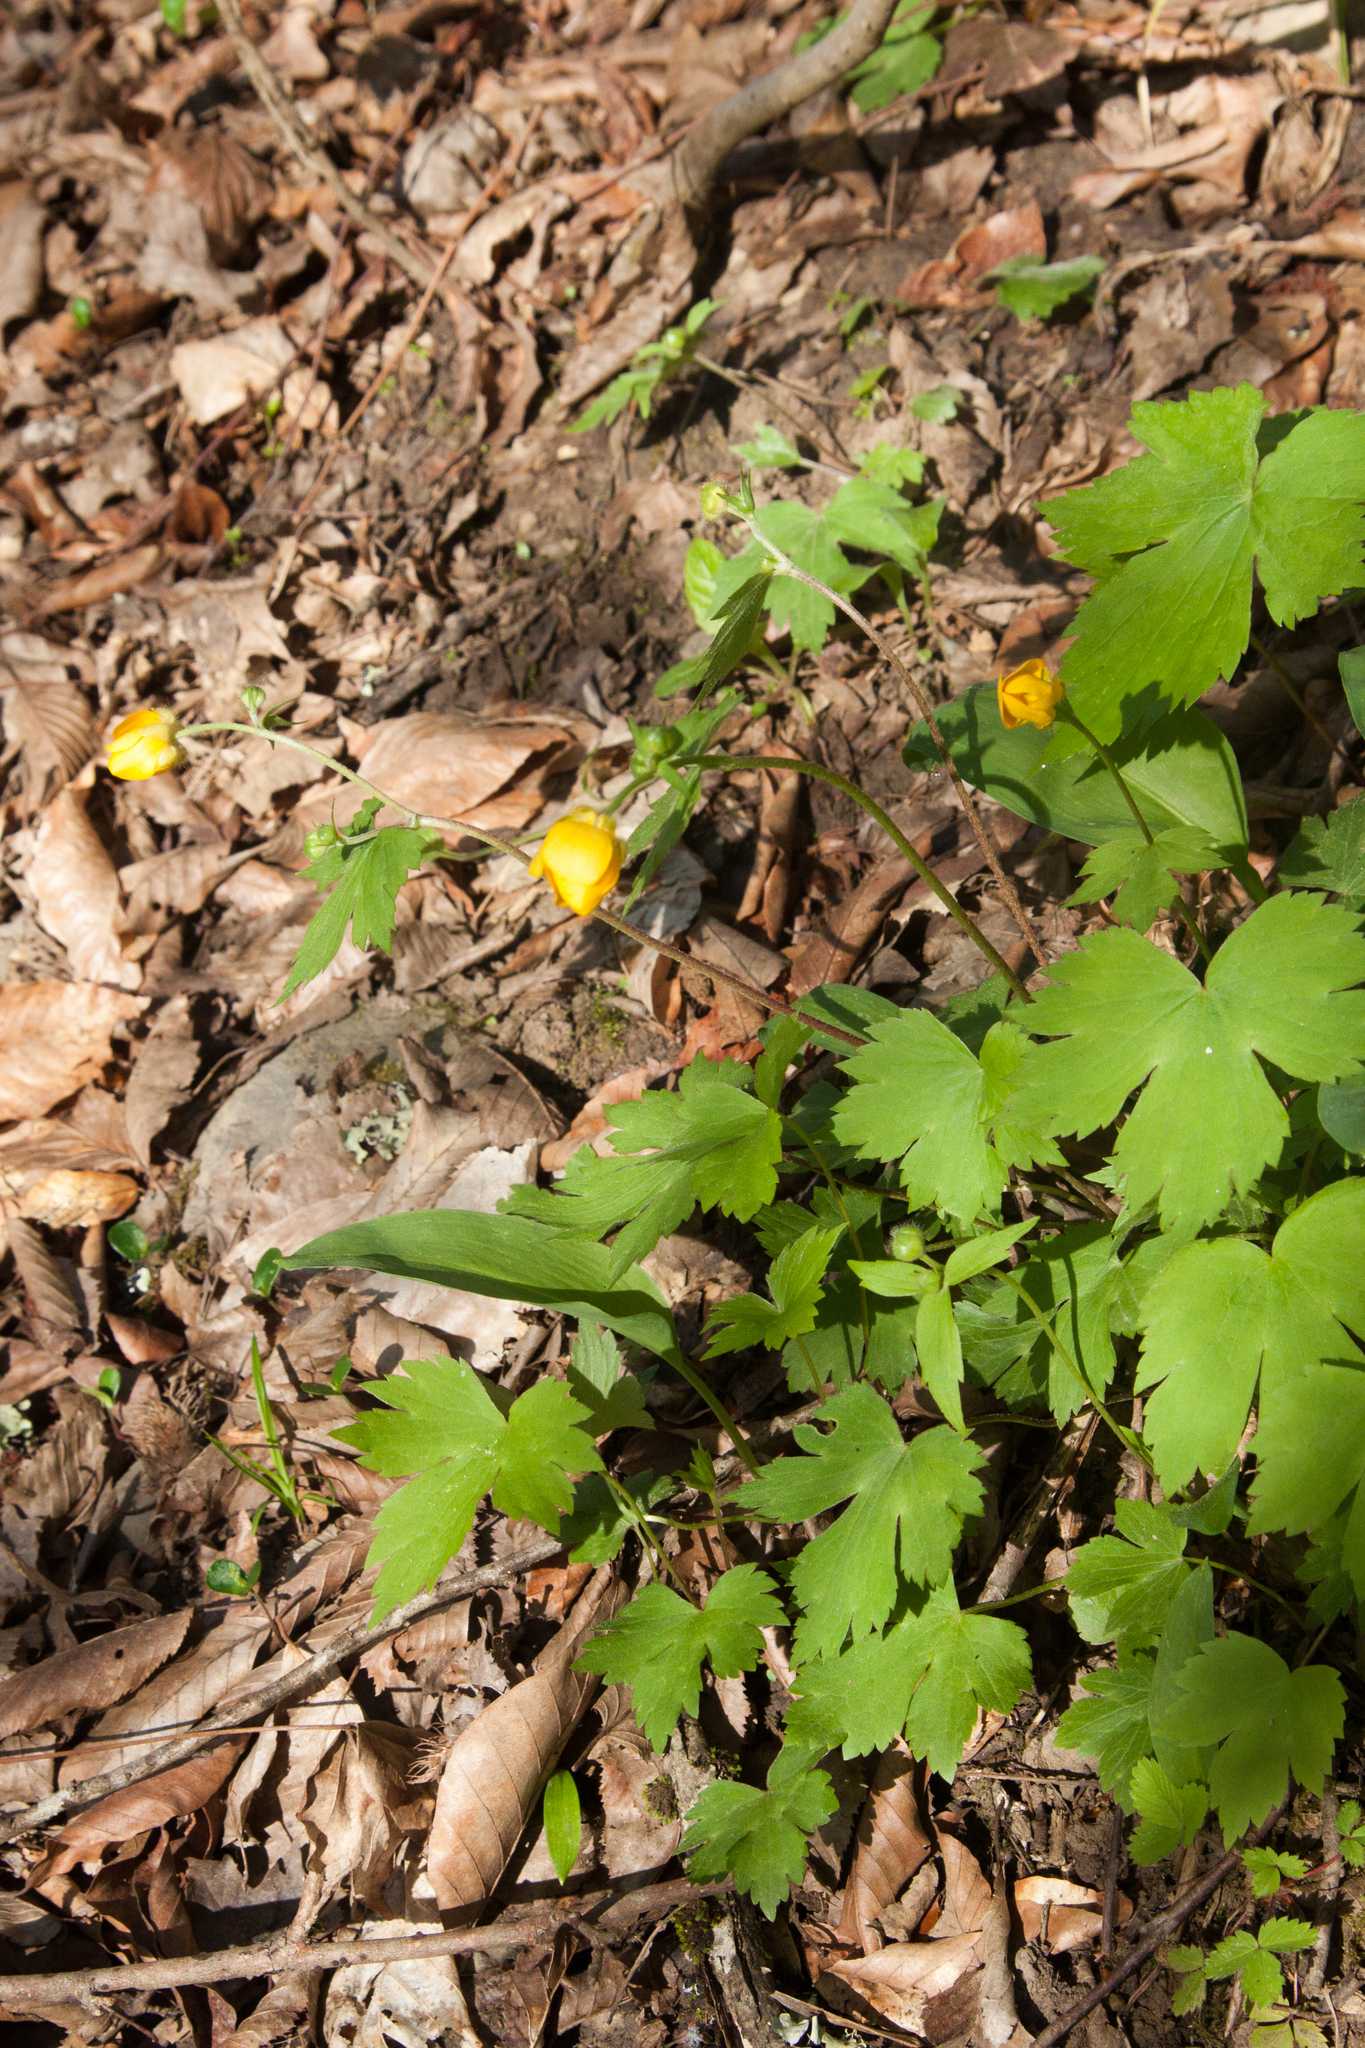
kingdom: Plantae
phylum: Tracheophyta
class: Magnoliopsida
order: Ranunculales
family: Ranunculaceae
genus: Ranunculus
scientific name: Ranunculus cappadocicus
